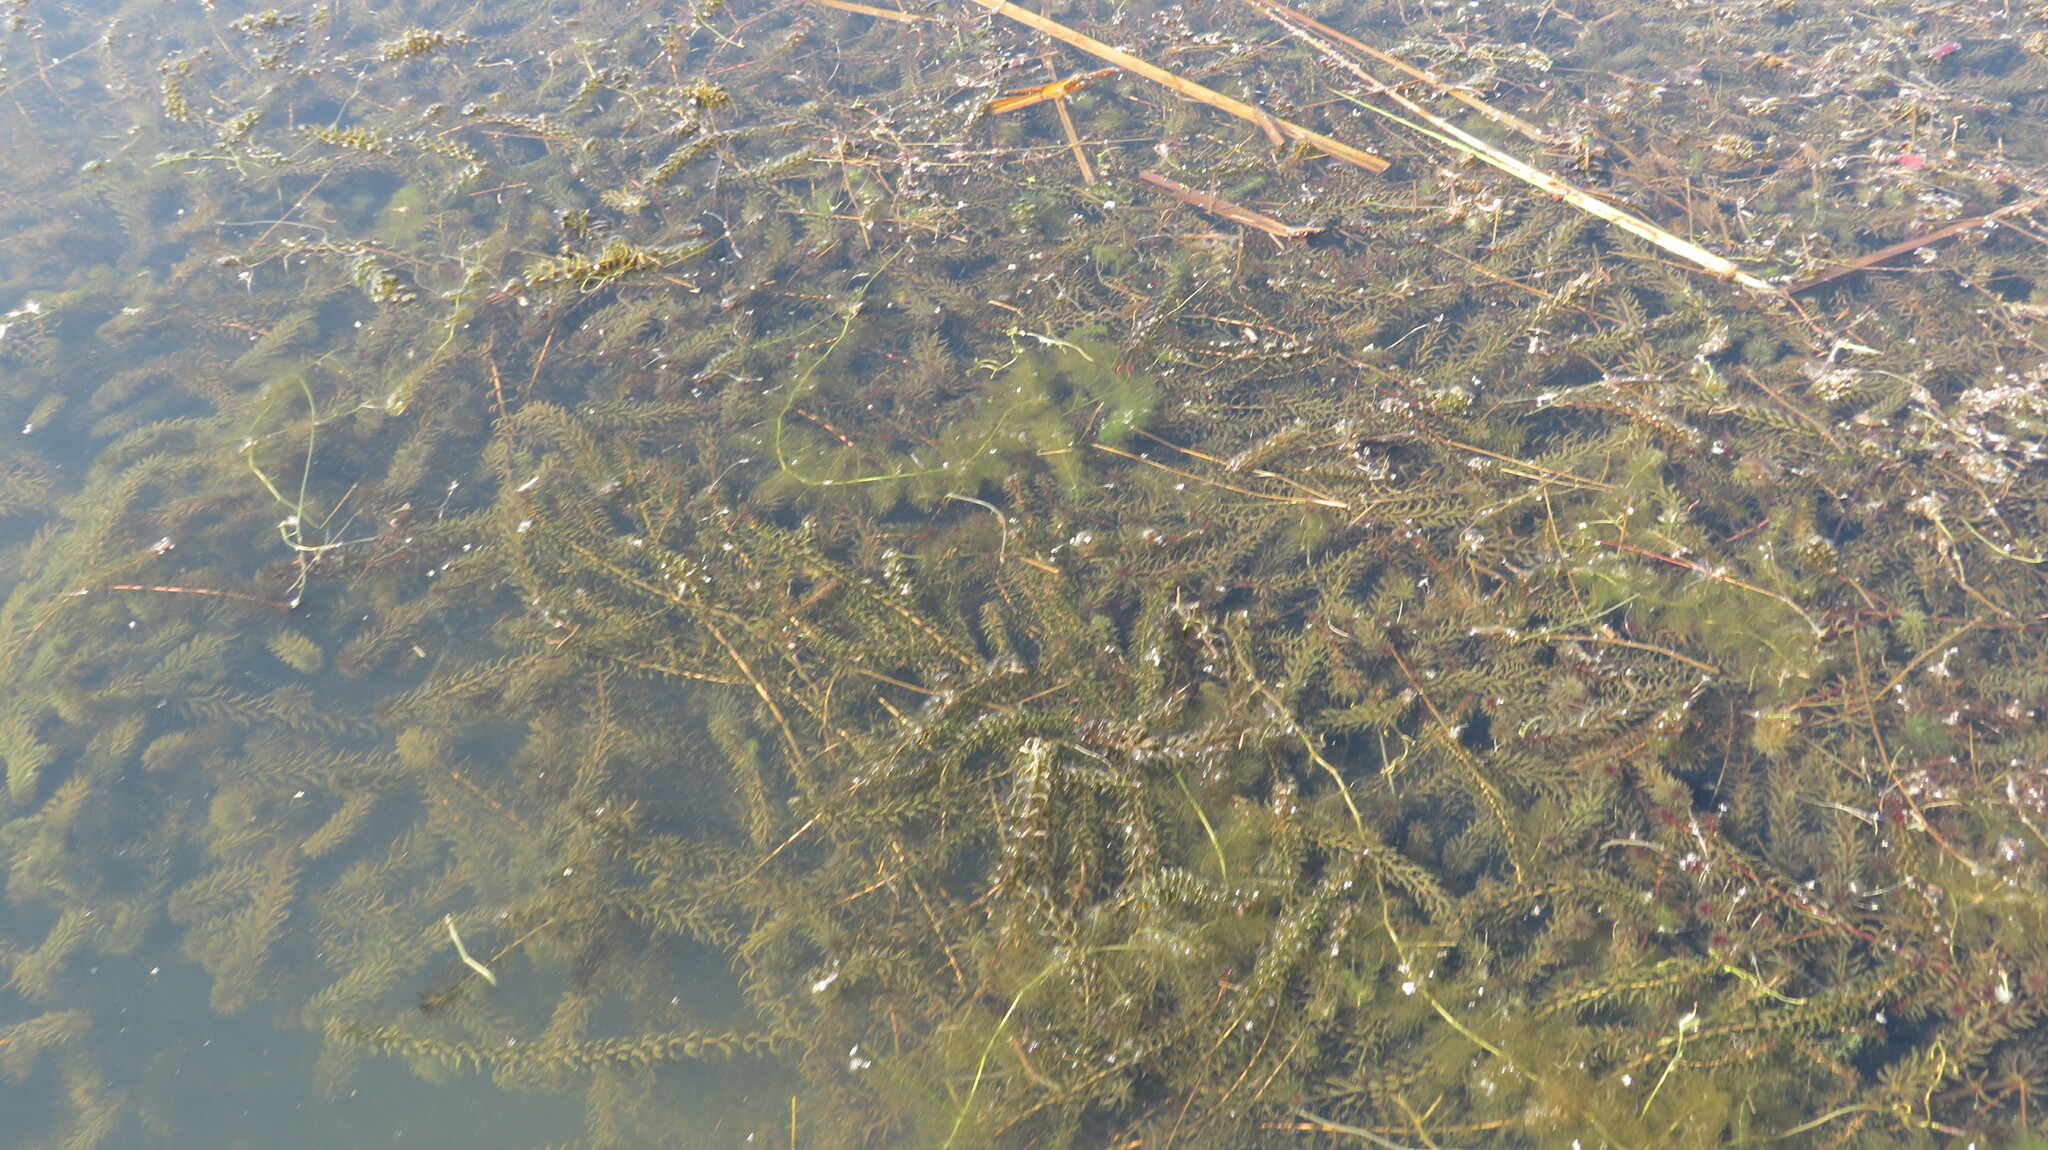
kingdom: Plantae
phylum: Tracheophyta
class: Liliopsida
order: Alismatales
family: Hydrocharitaceae
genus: Hydrilla
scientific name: Hydrilla verticillata
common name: Florida-elodea
